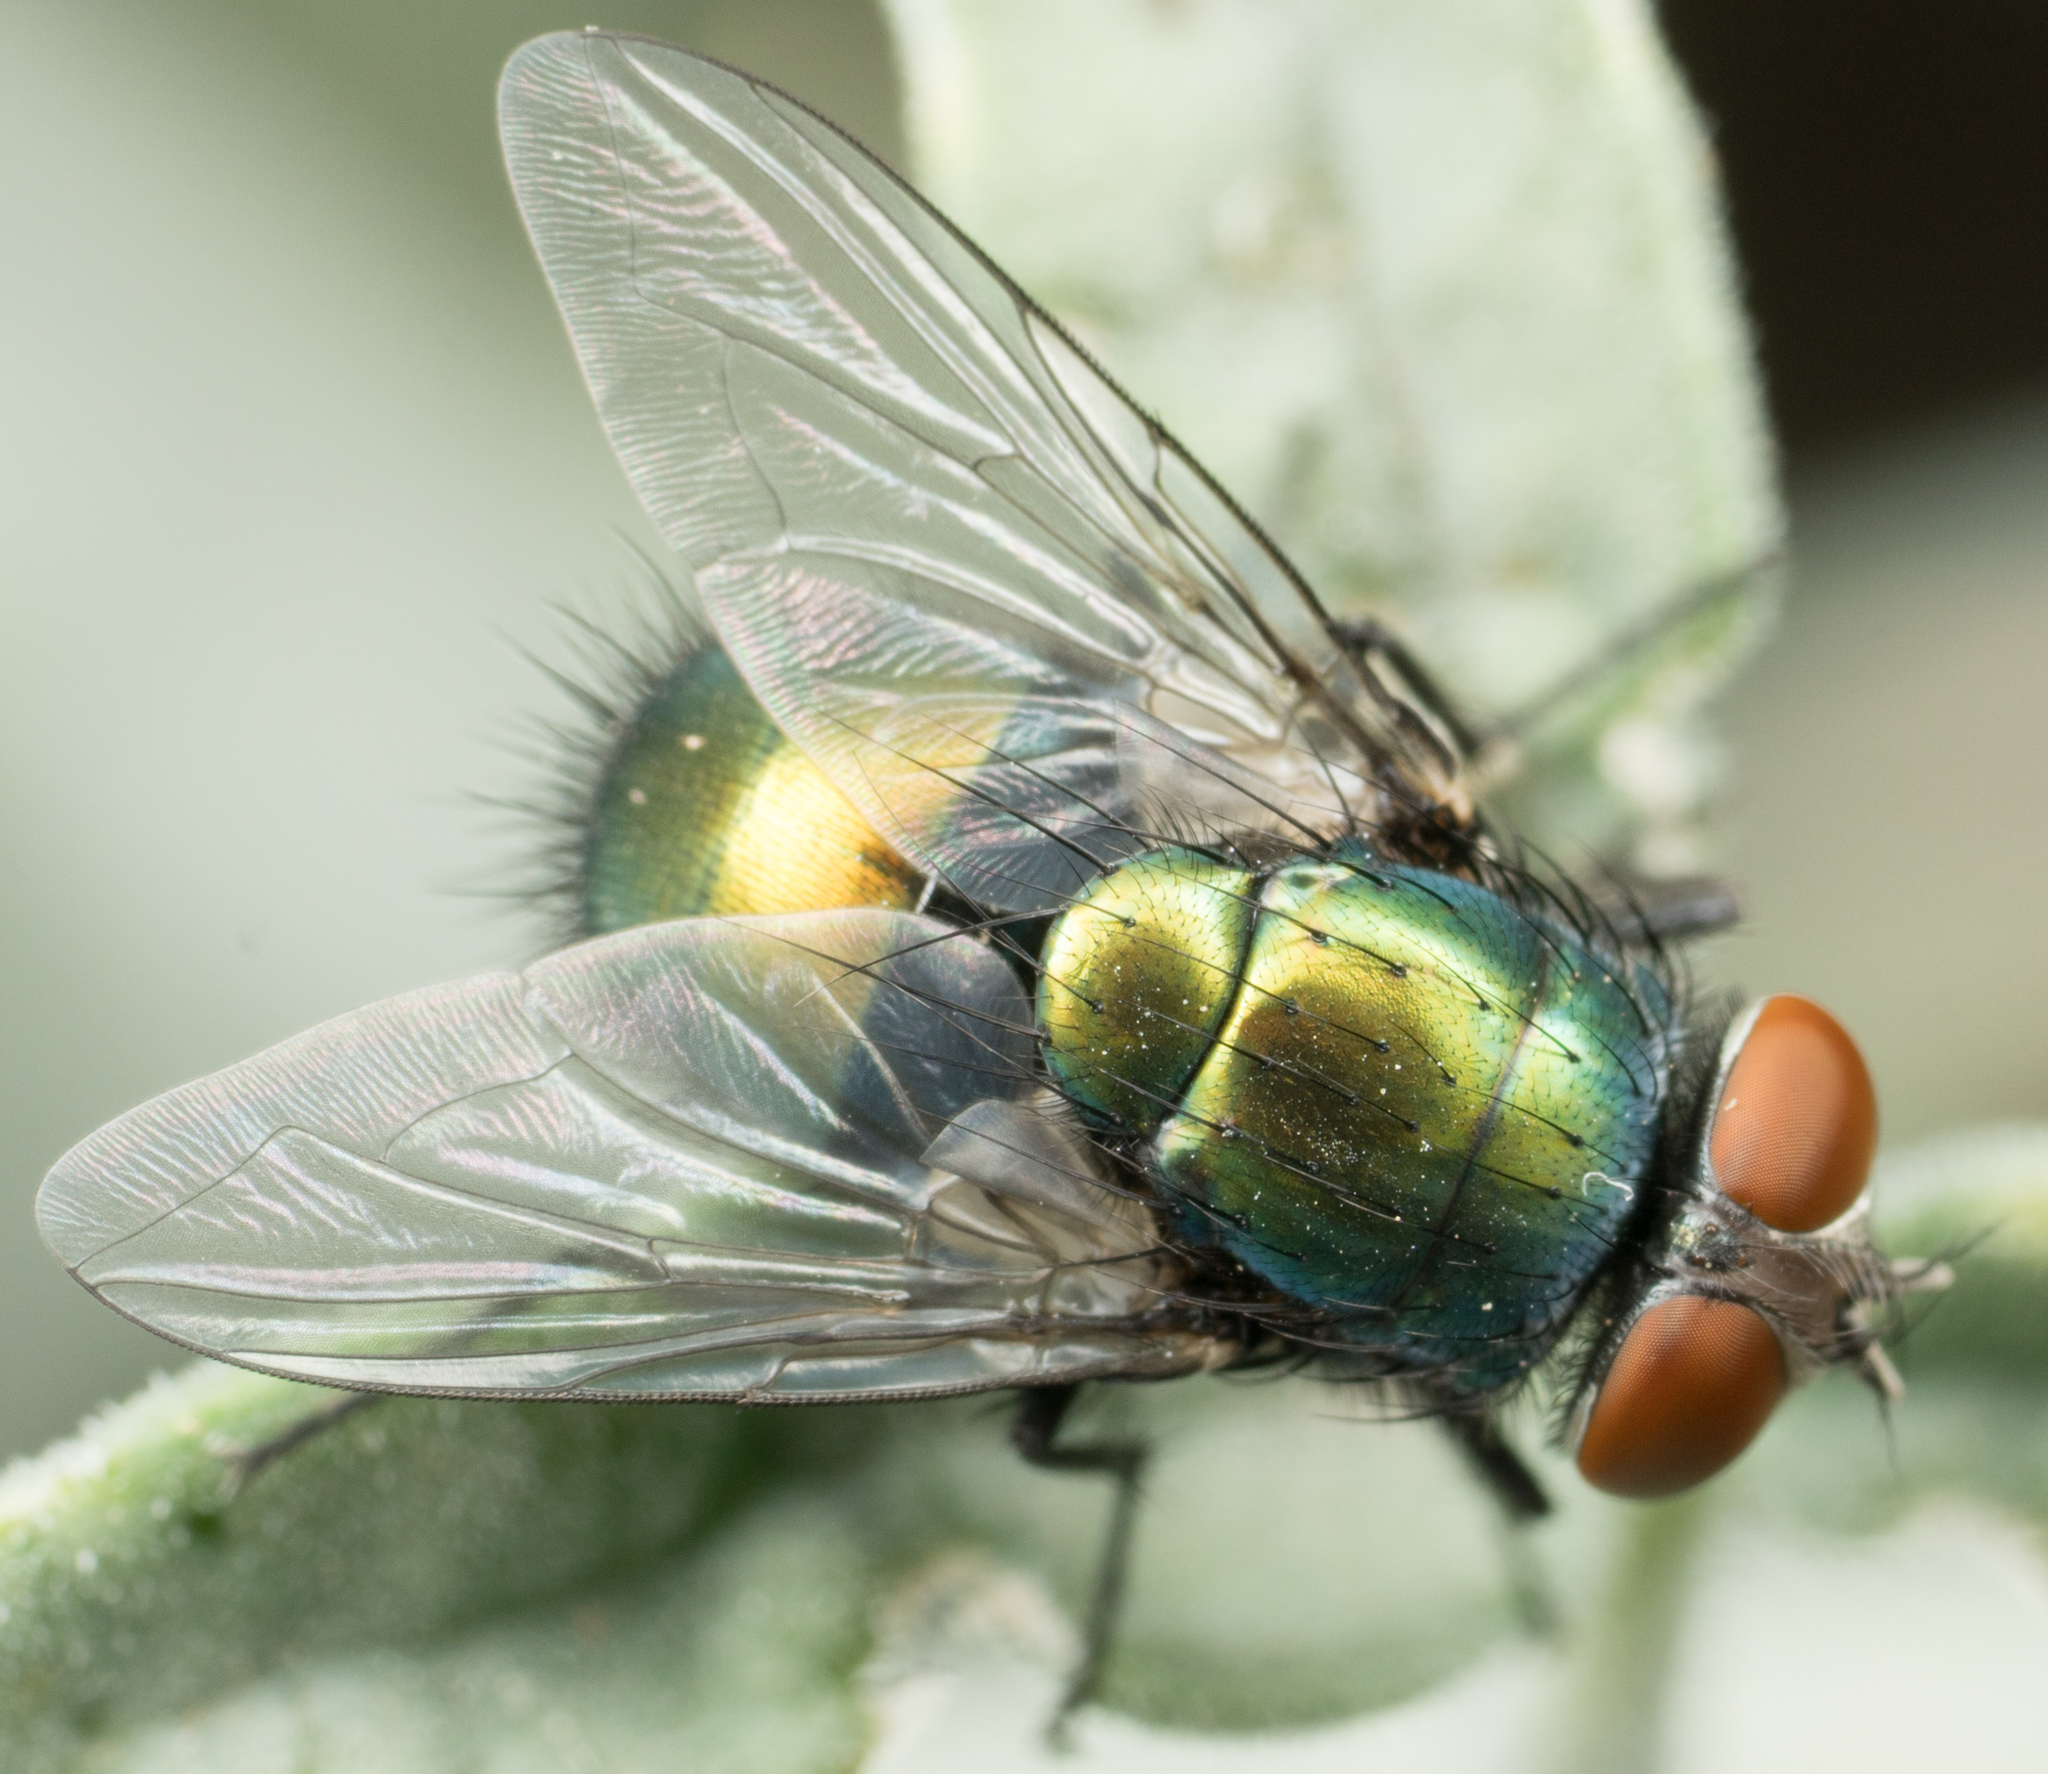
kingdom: Animalia
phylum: Arthropoda
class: Insecta
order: Diptera
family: Calliphoridae
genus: Lucilia
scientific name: Lucilia sericata
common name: Blow fly
